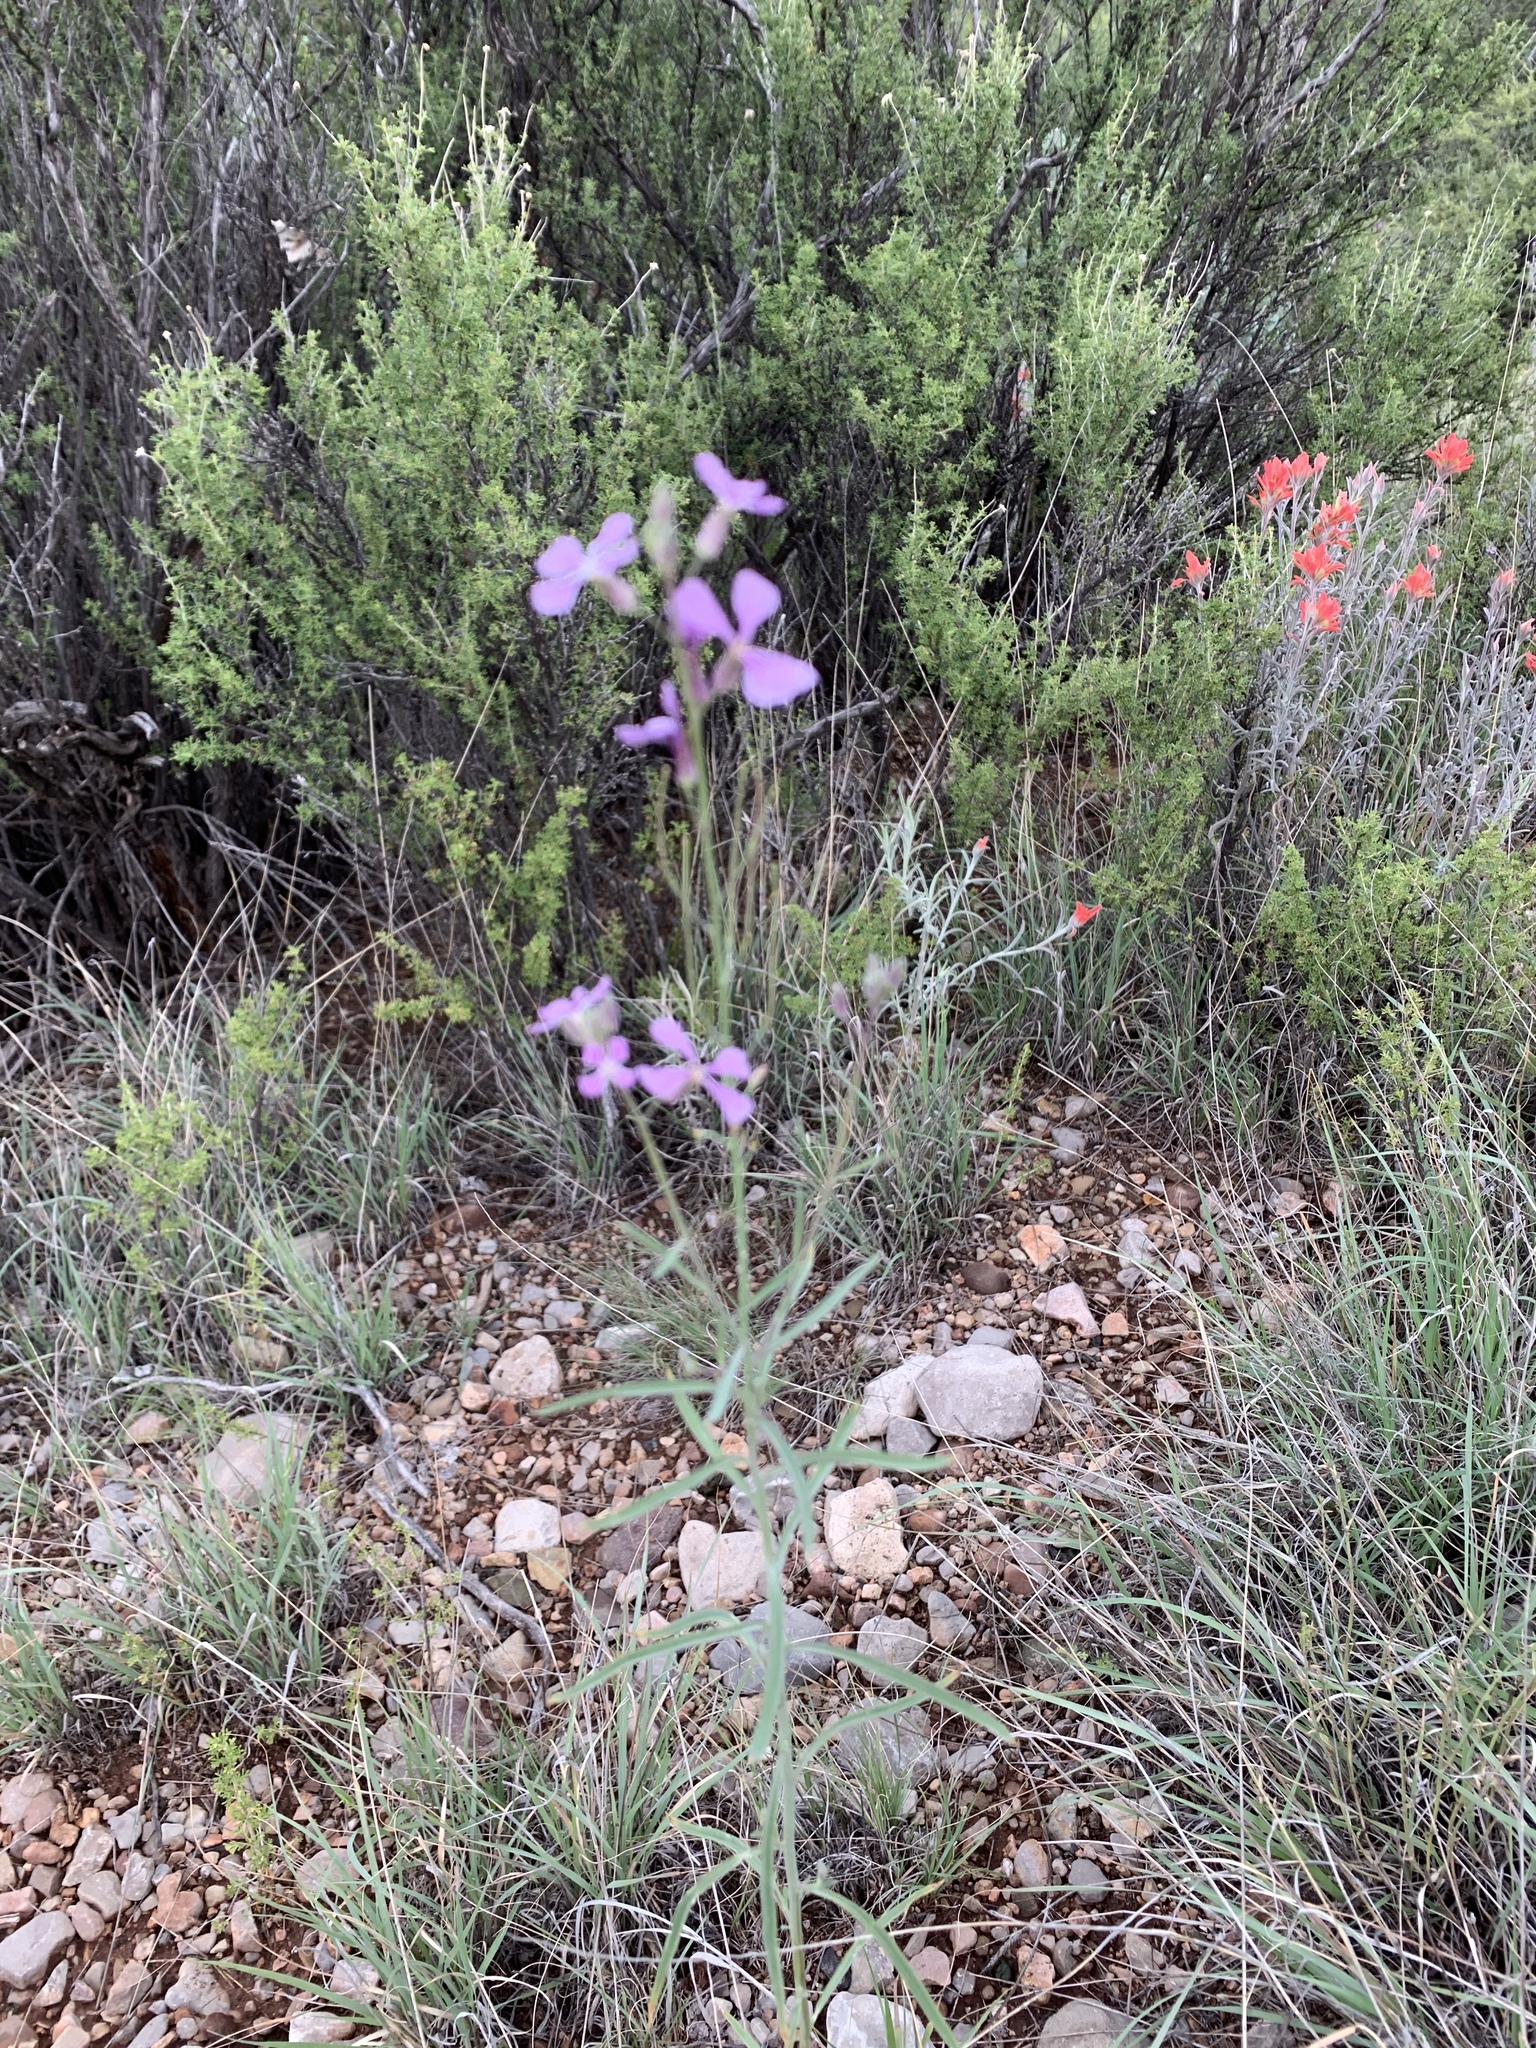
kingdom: Plantae
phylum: Tracheophyta
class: Magnoliopsida
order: Brassicales
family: Brassicaceae
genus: Hesperidanthus
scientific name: Hesperidanthus linearifolius
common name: Slim-leaf plains mustard
